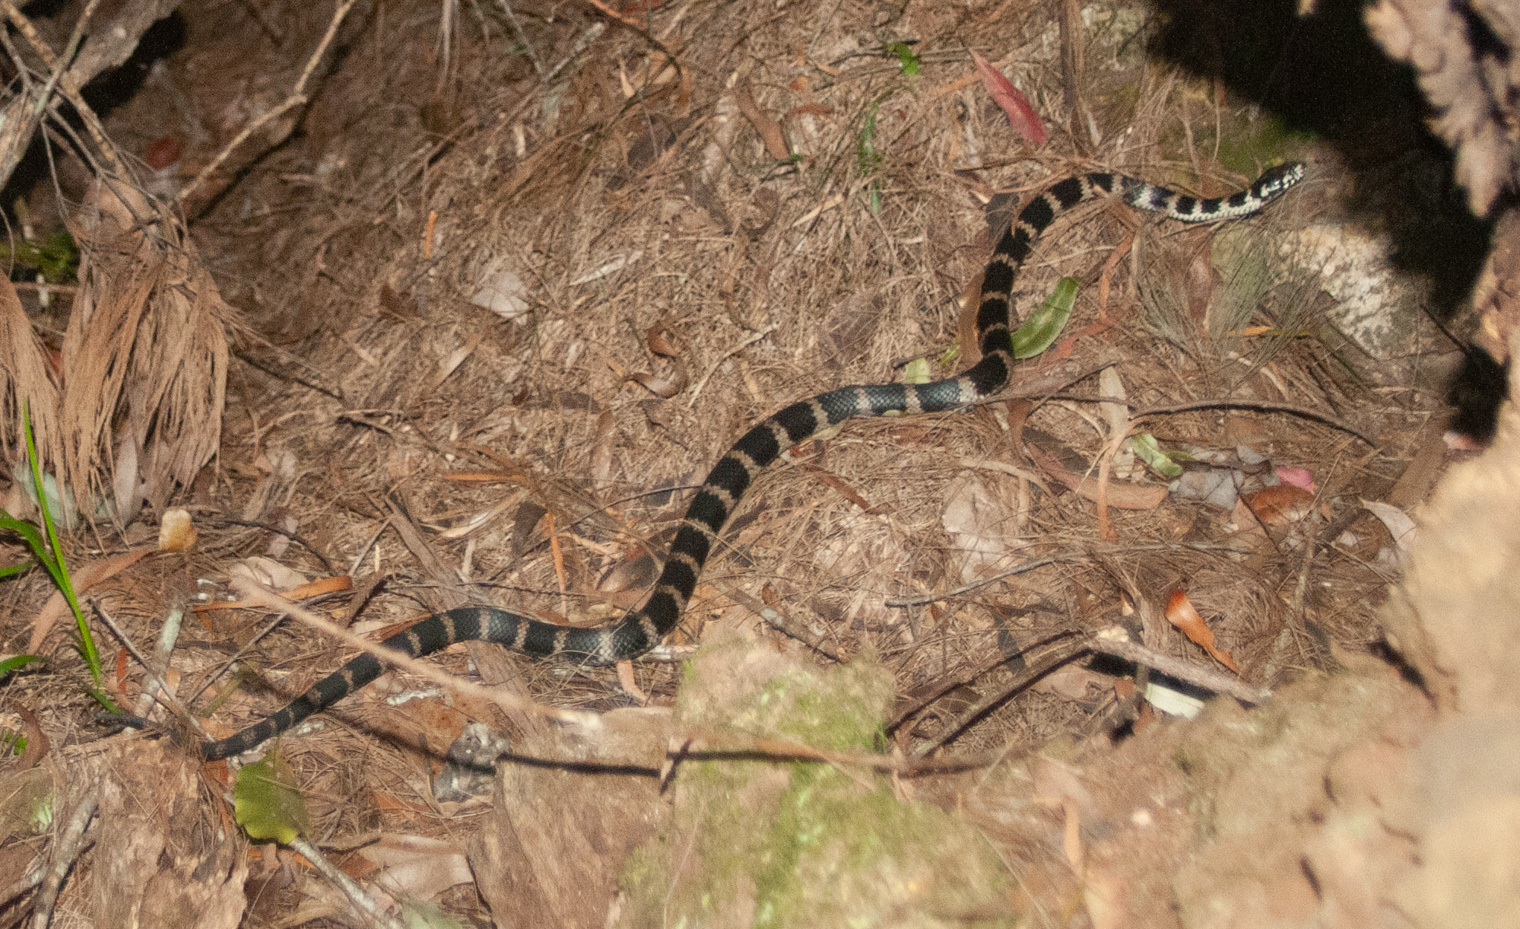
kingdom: Animalia
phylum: Chordata
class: Squamata
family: Elapidae
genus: Hoplocephalus
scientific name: Hoplocephalus stephensii
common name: Stephen's banded snake
